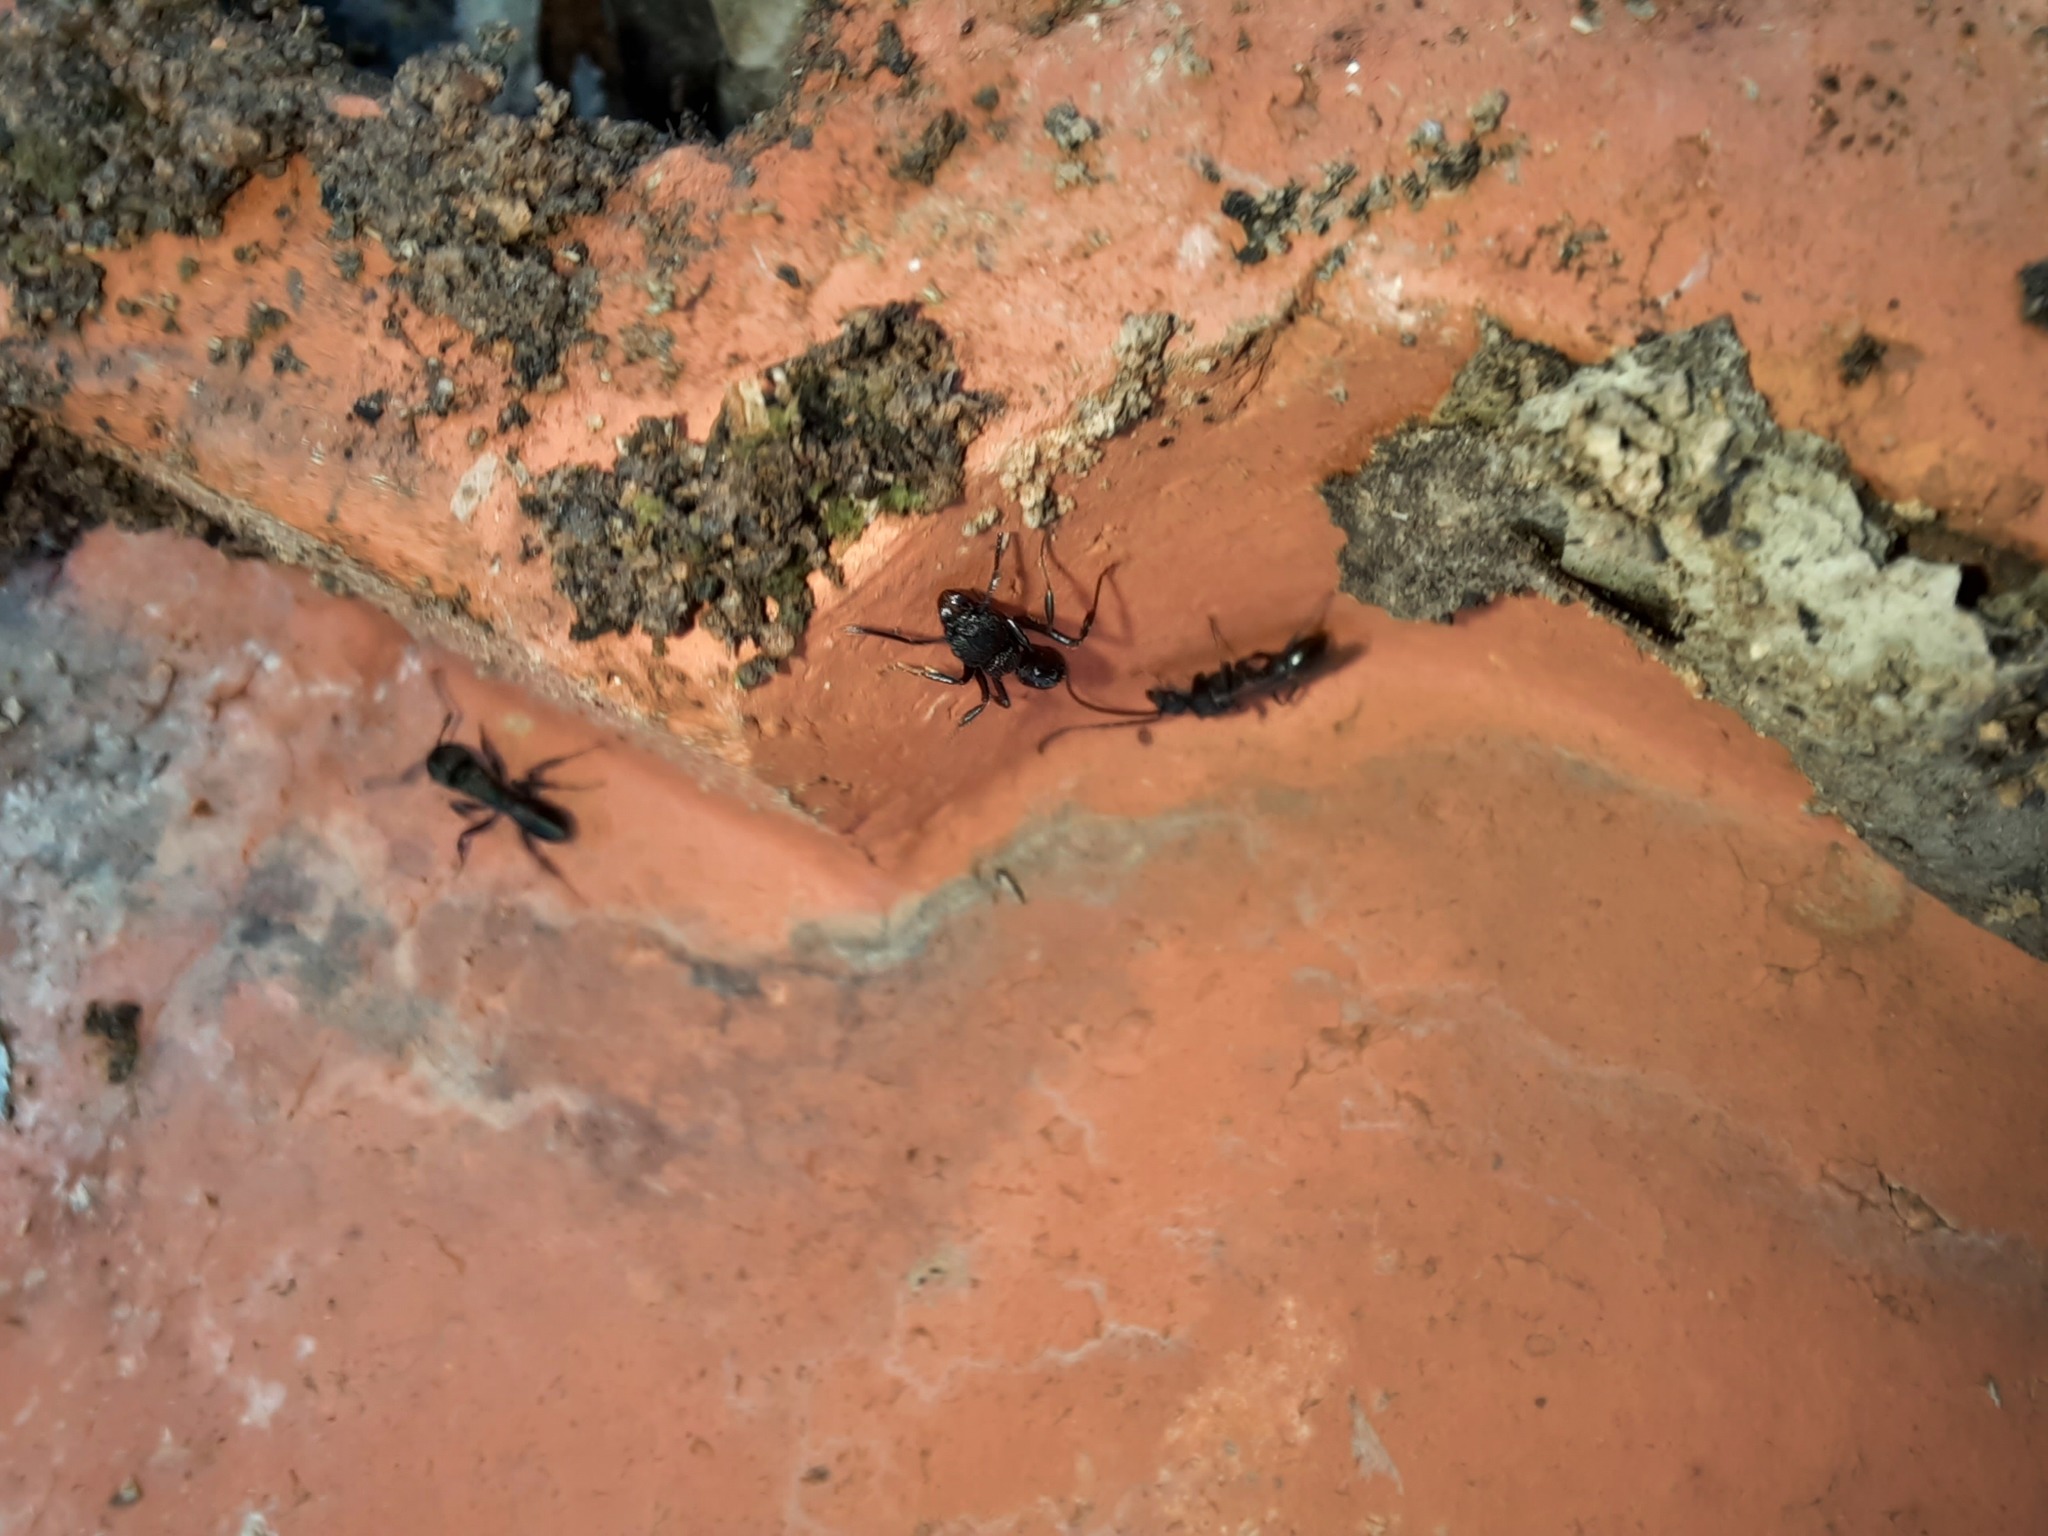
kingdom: Animalia
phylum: Arthropoda
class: Insecta
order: Hymenoptera
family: Formicidae
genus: Rhytidoponera
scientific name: Rhytidoponera metallica
